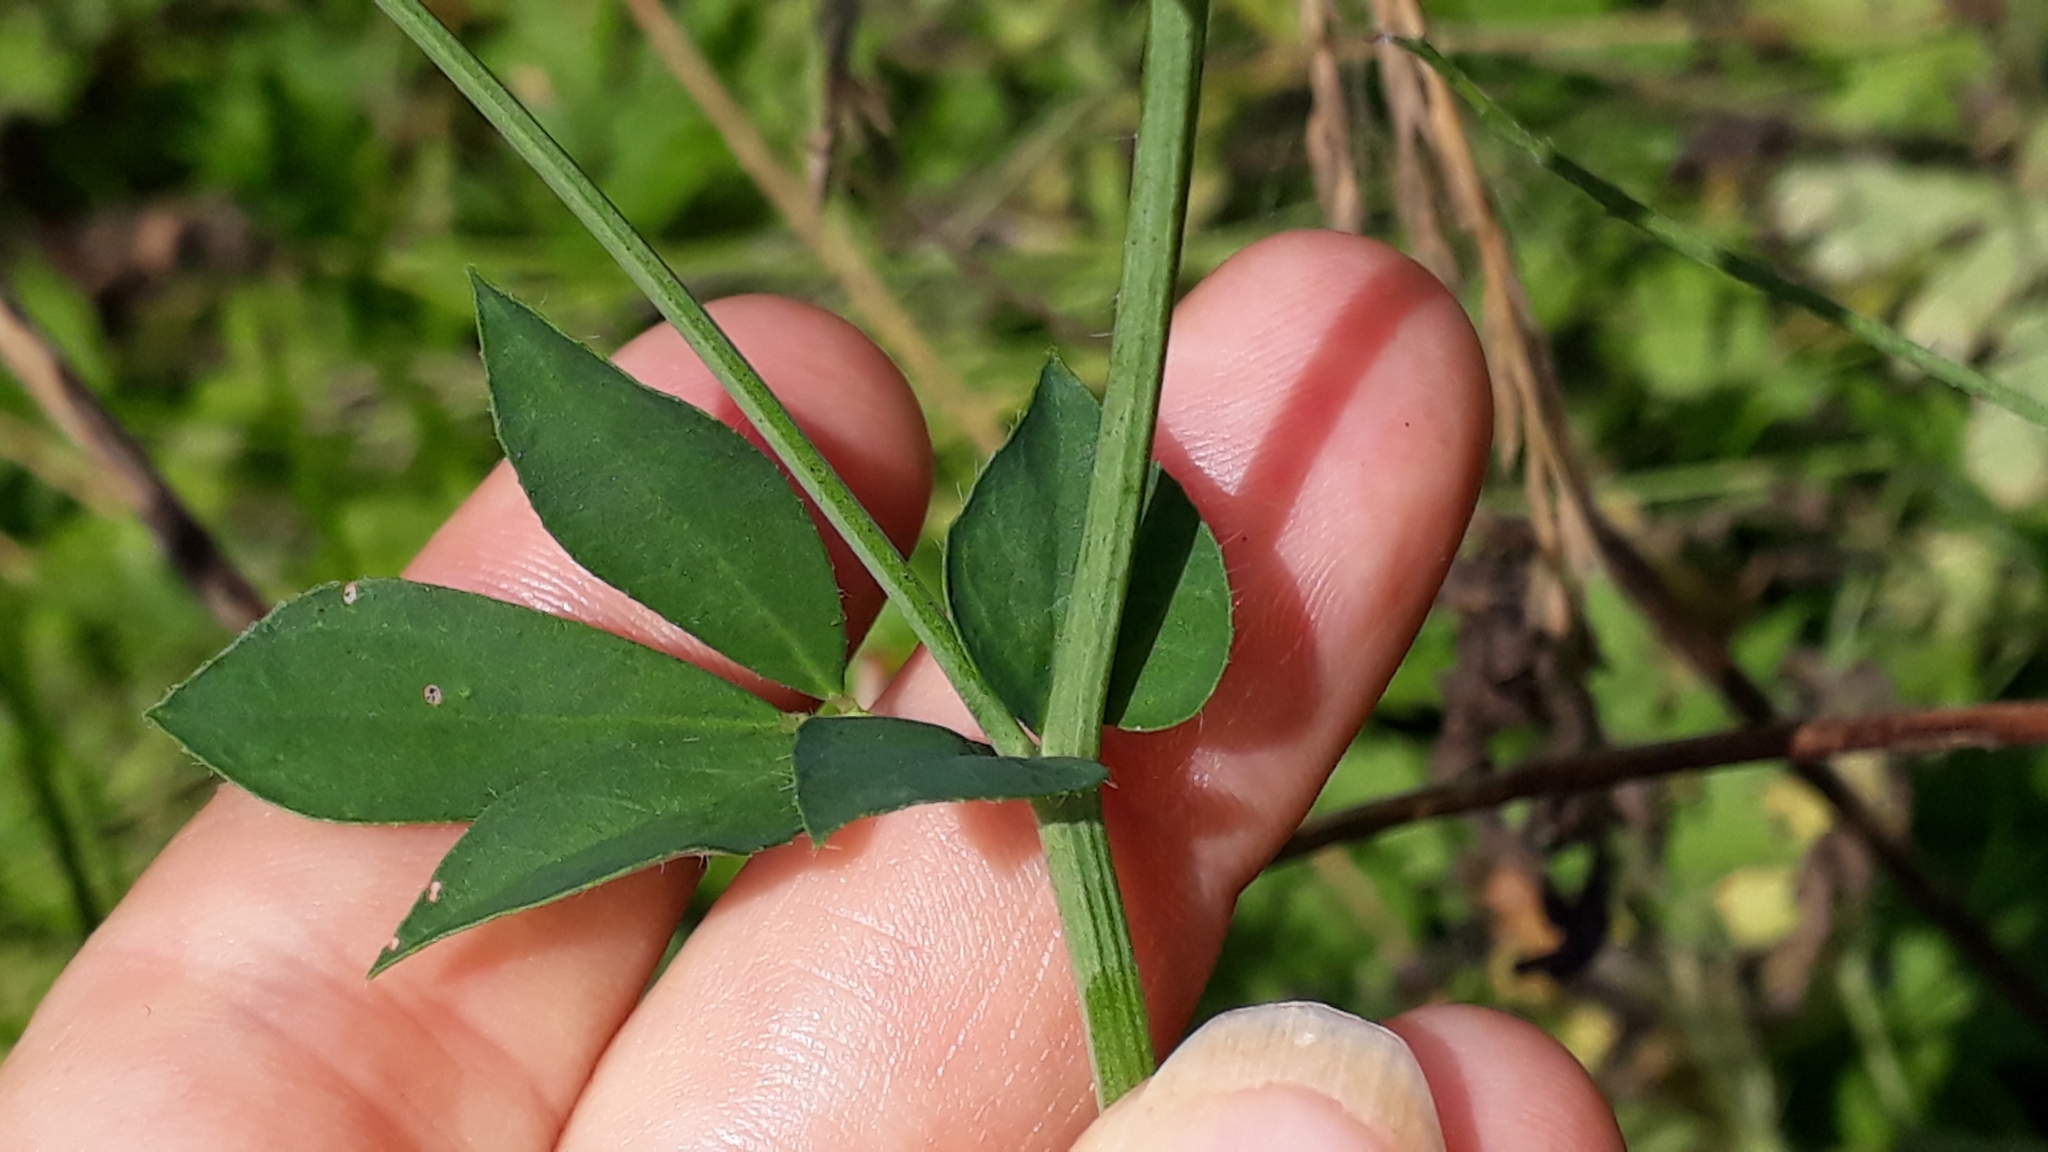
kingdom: Plantae
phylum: Tracheophyta
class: Magnoliopsida
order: Fabales
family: Fabaceae
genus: Lotus
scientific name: Lotus pedunculatus
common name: Greater birdsfoot-trefoil
